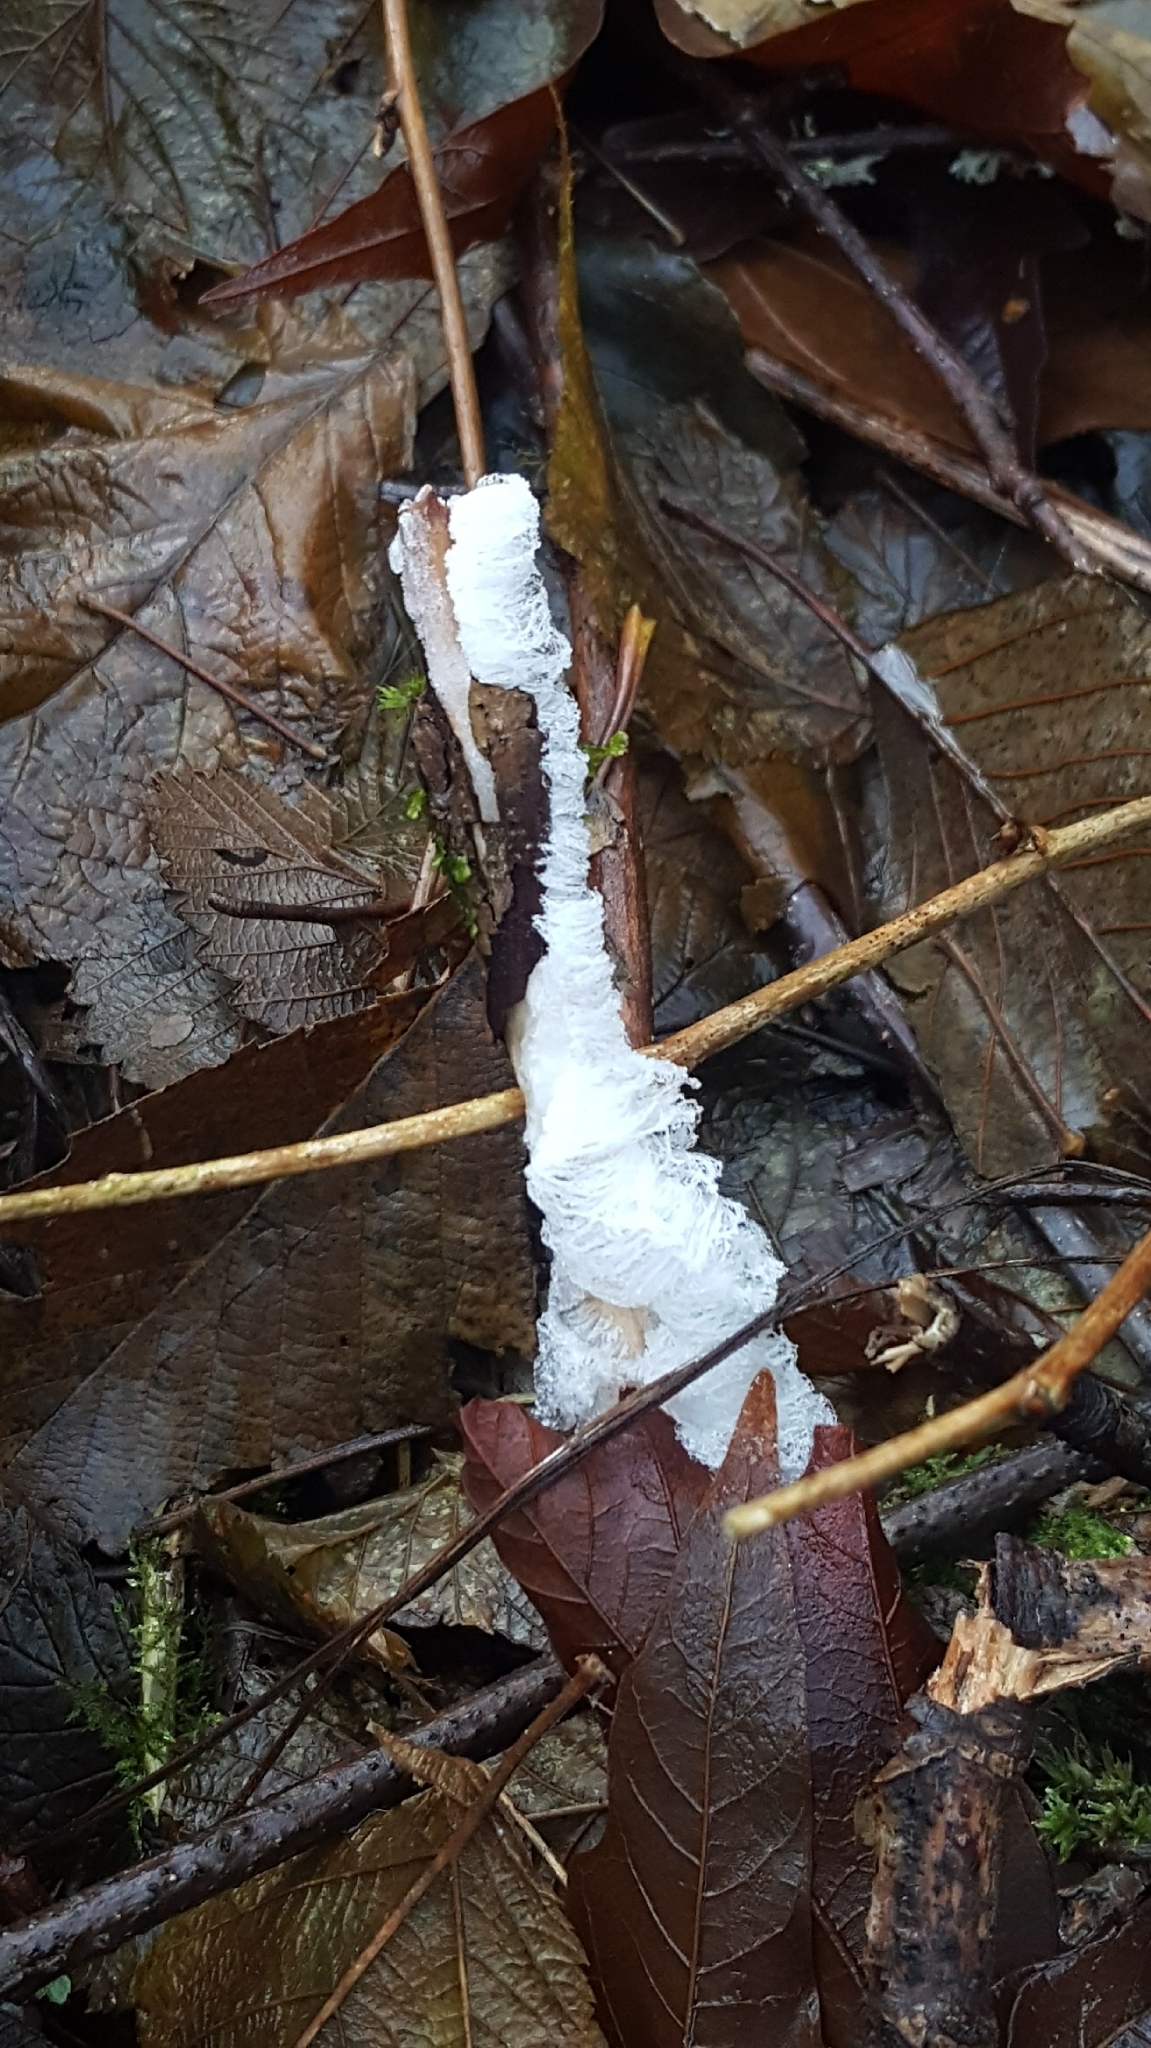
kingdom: Fungi
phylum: Basidiomycota
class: Agaricomycetes
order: Auriculariales
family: Auriculariaceae
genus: Exidiopsis
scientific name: Exidiopsis effusa
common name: Hair ice crust
